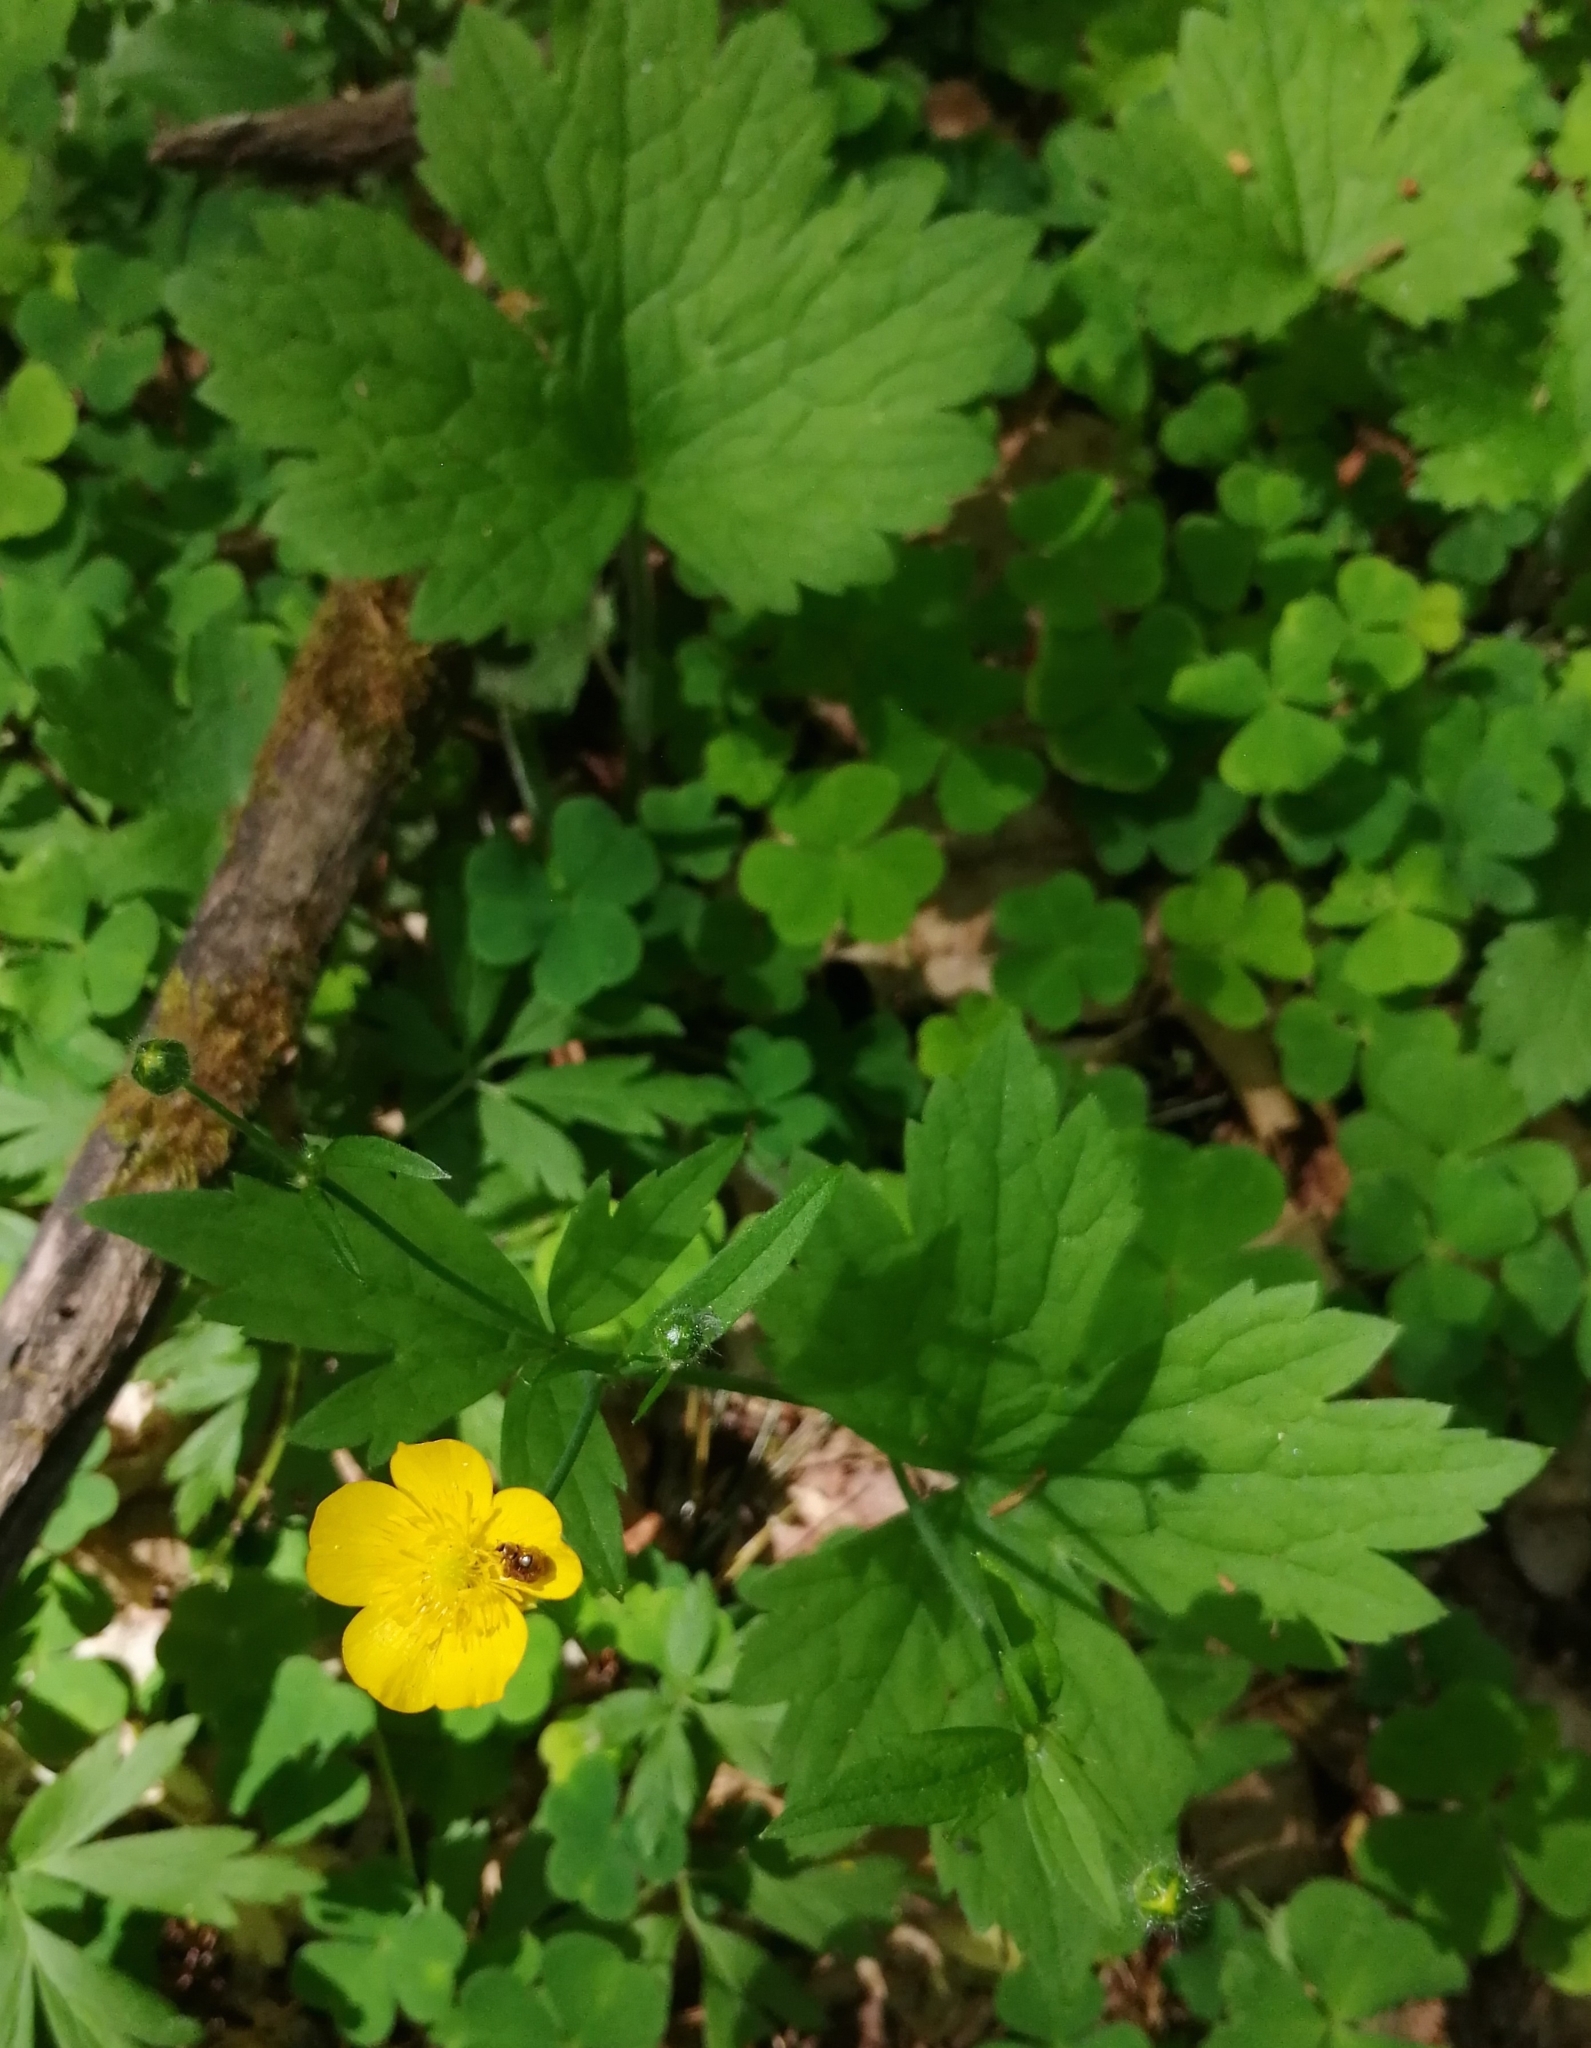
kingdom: Plantae
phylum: Tracheophyta
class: Magnoliopsida
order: Ranunculales
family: Ranunculaceae
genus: Ranunculus
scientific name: Ranunculus lanuginosus
